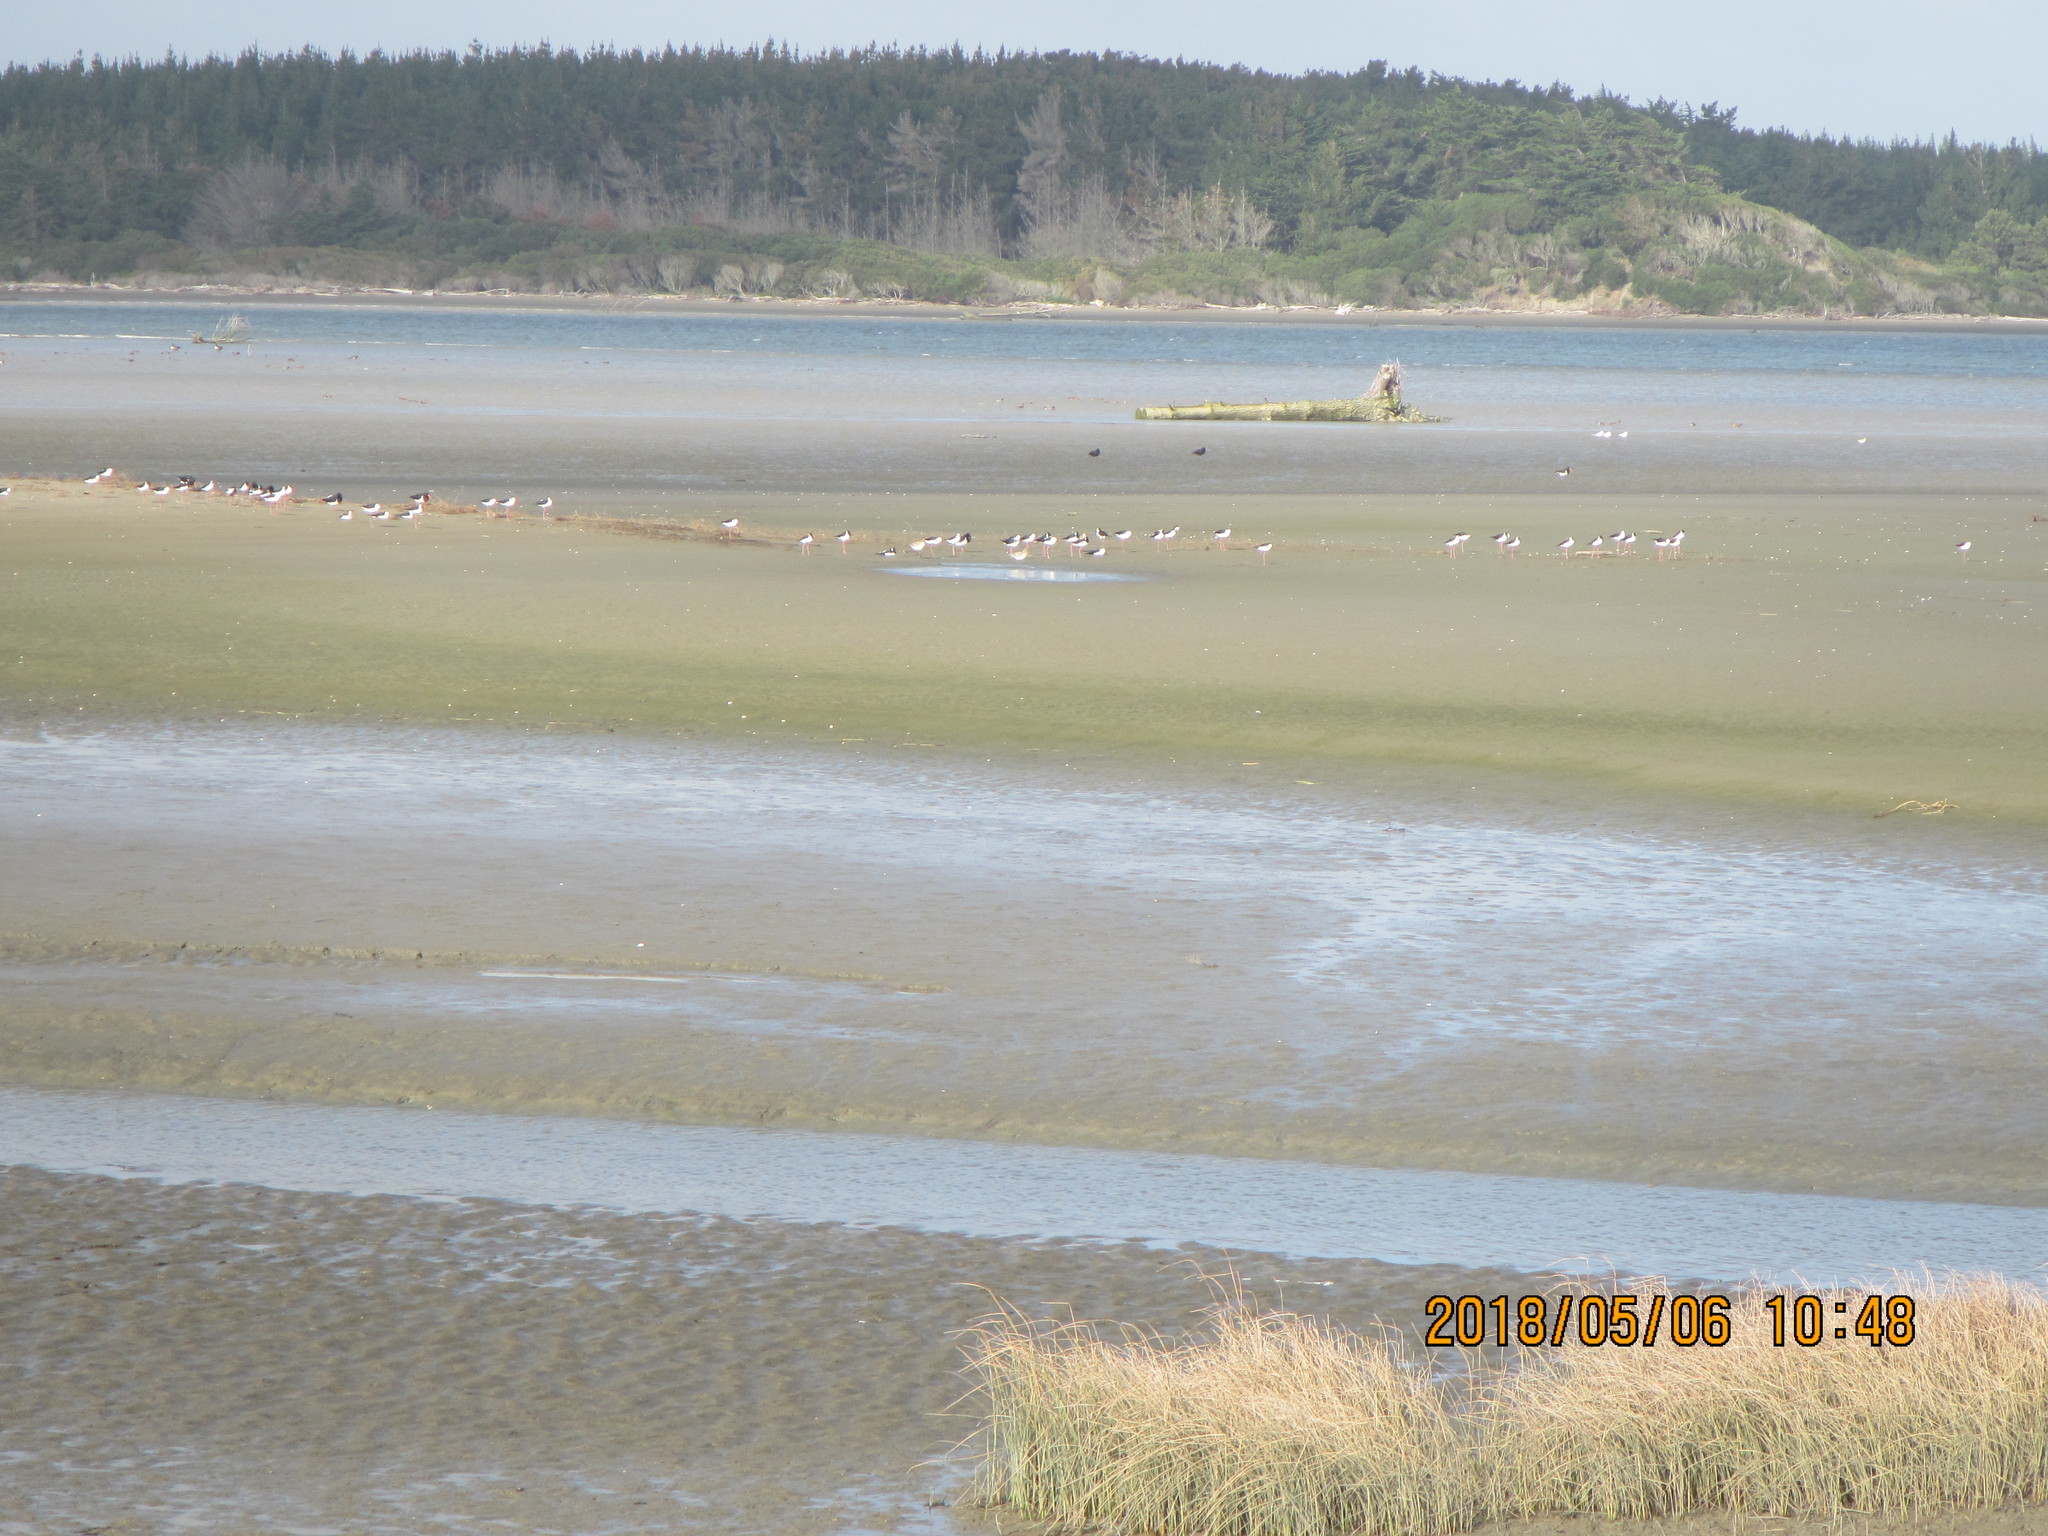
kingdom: Animalia
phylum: Chordata
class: Aves
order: Charadriiformes
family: Recurvirostridae
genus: Himantopus
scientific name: Himantopus leucocephalus
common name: White-headed stilt
